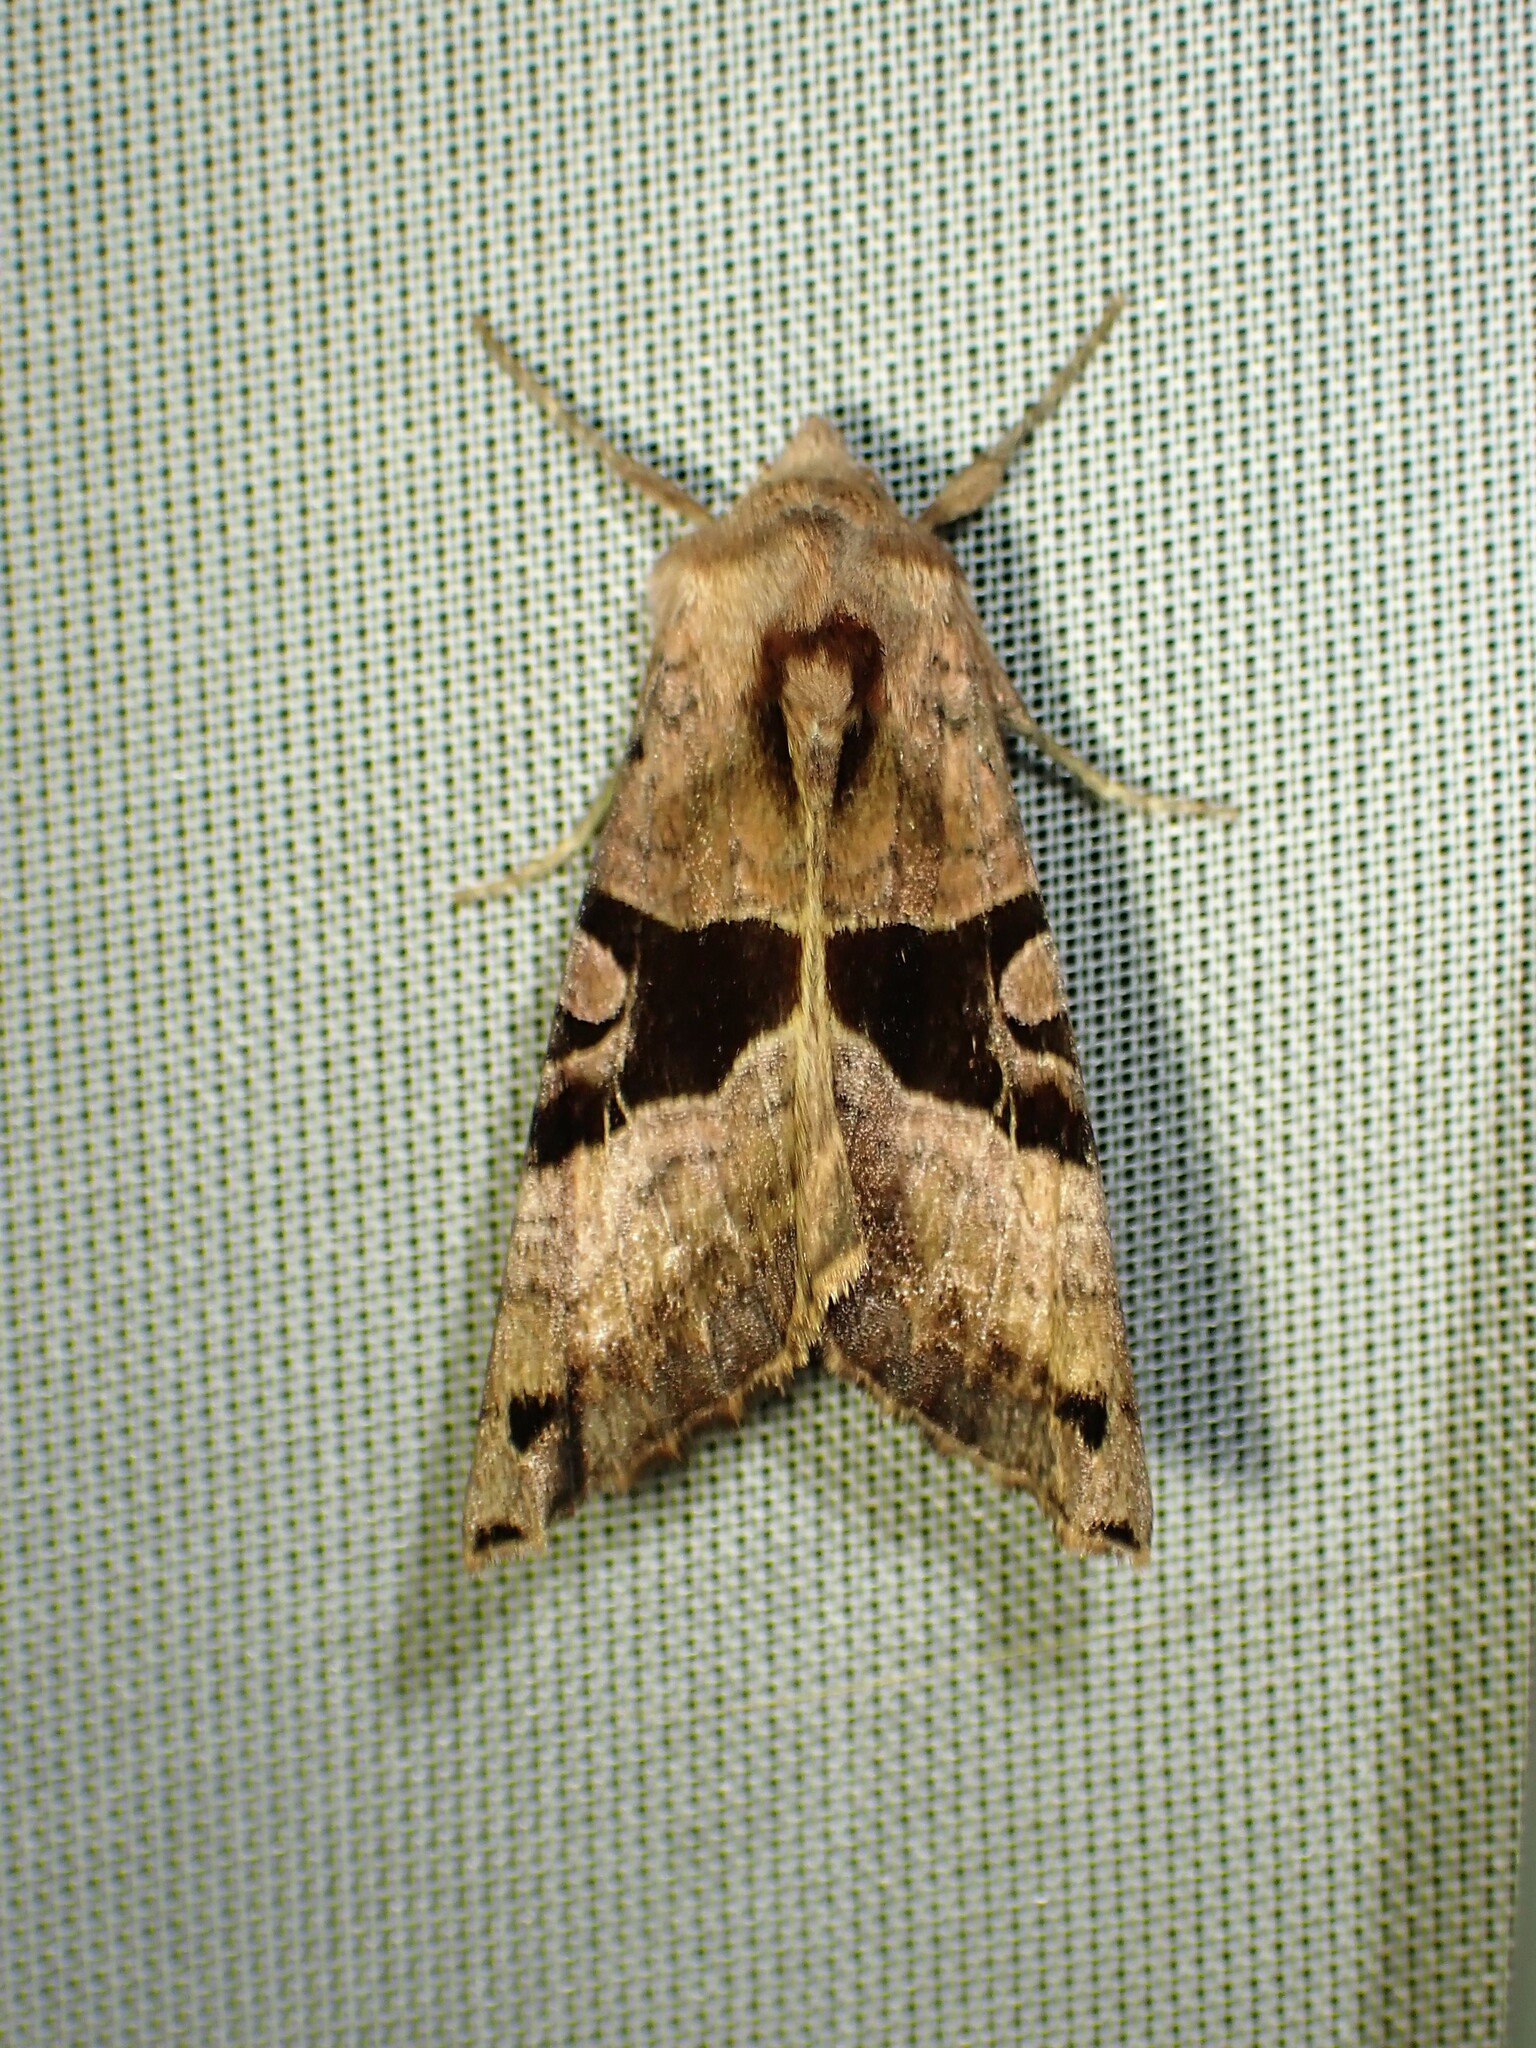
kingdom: Animalia
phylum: Arthropoda
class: Insecta
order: Lepidoptera
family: Noctuidae
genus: Phlogophora
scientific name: Phlogophora periculosa
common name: Brown angle shades
